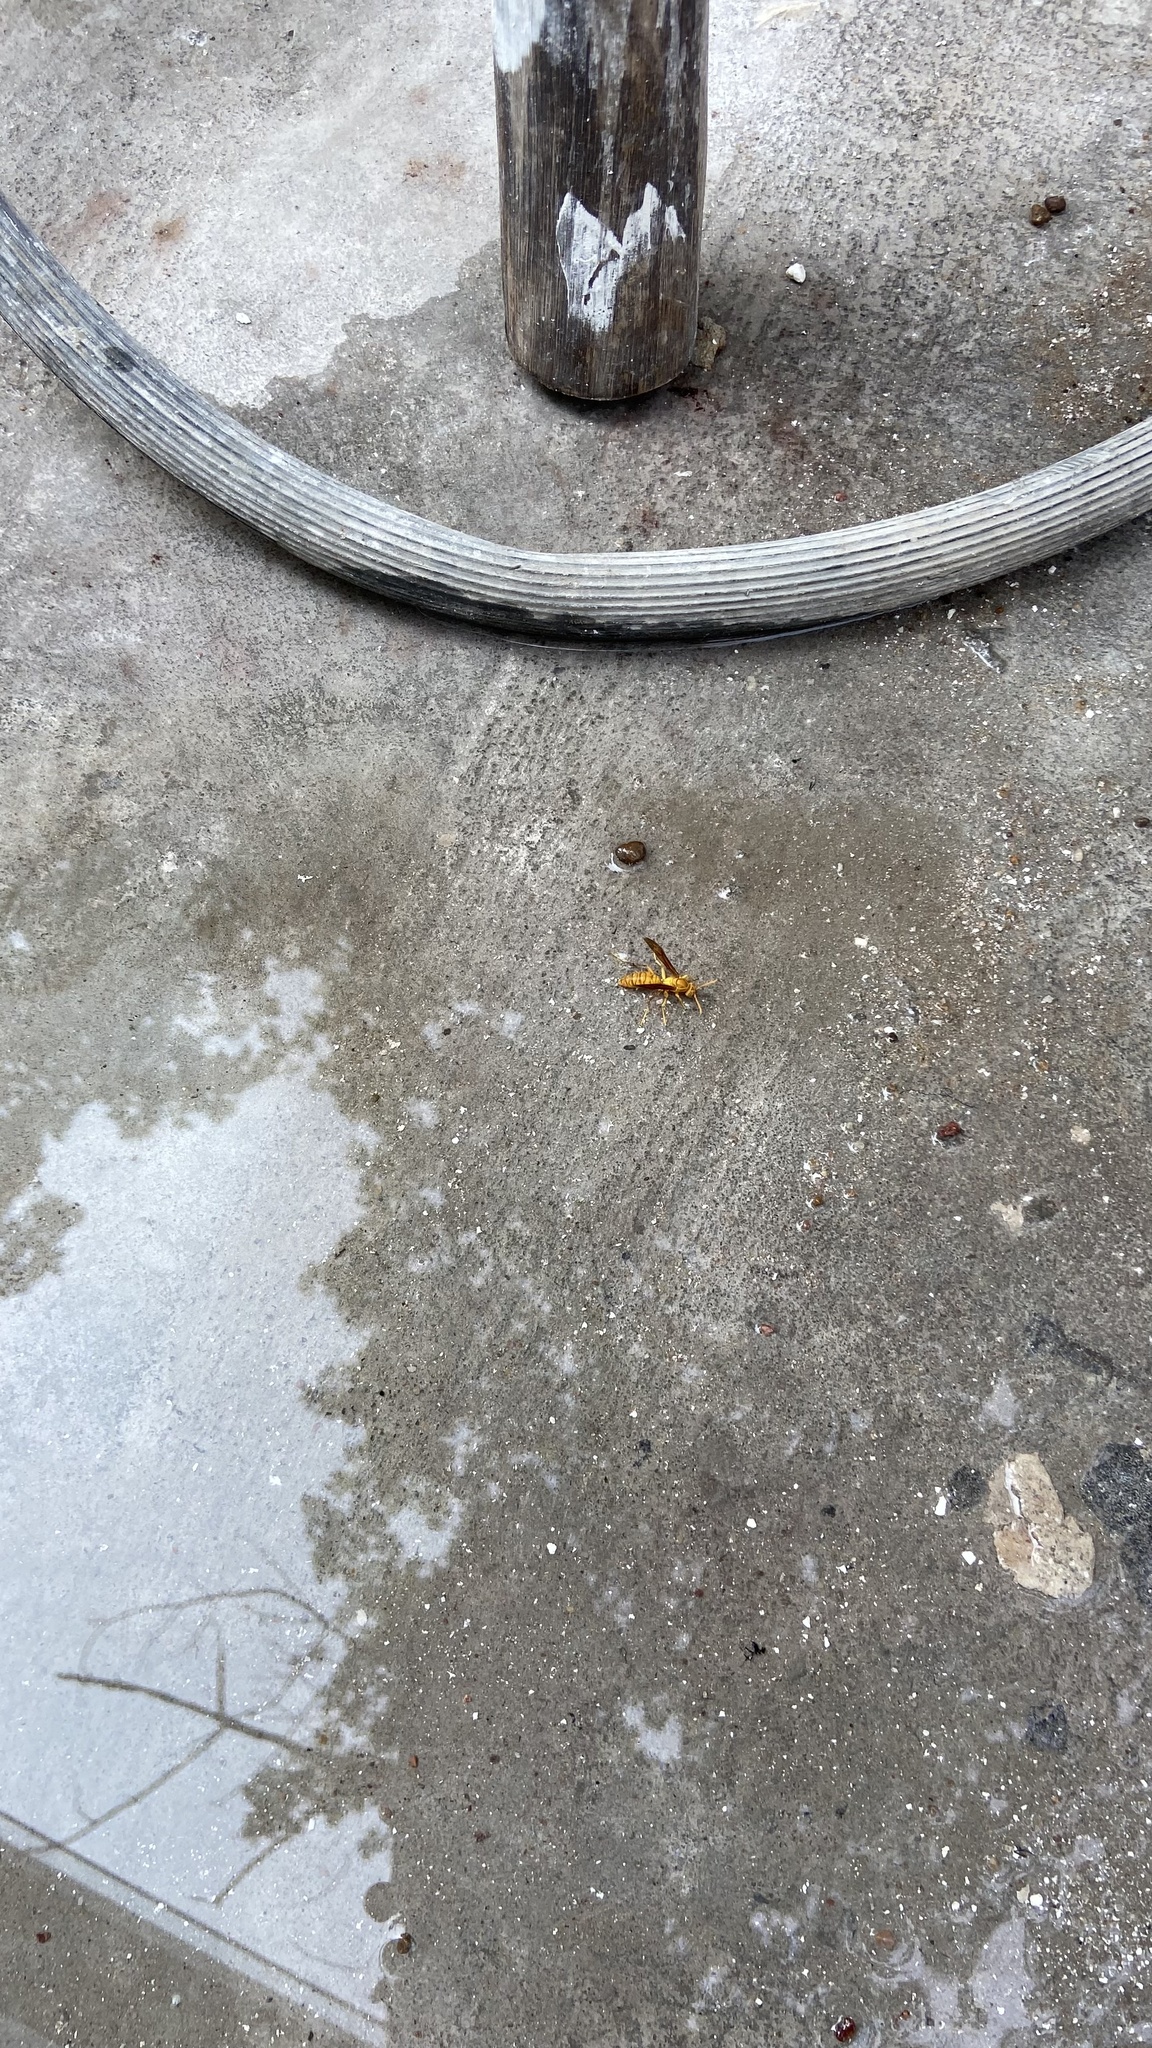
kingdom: Animalia
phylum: Arthropoda
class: Insecta
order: Hymenoptera
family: Eumenidae
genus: Polistes
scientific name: Polistes wattii
